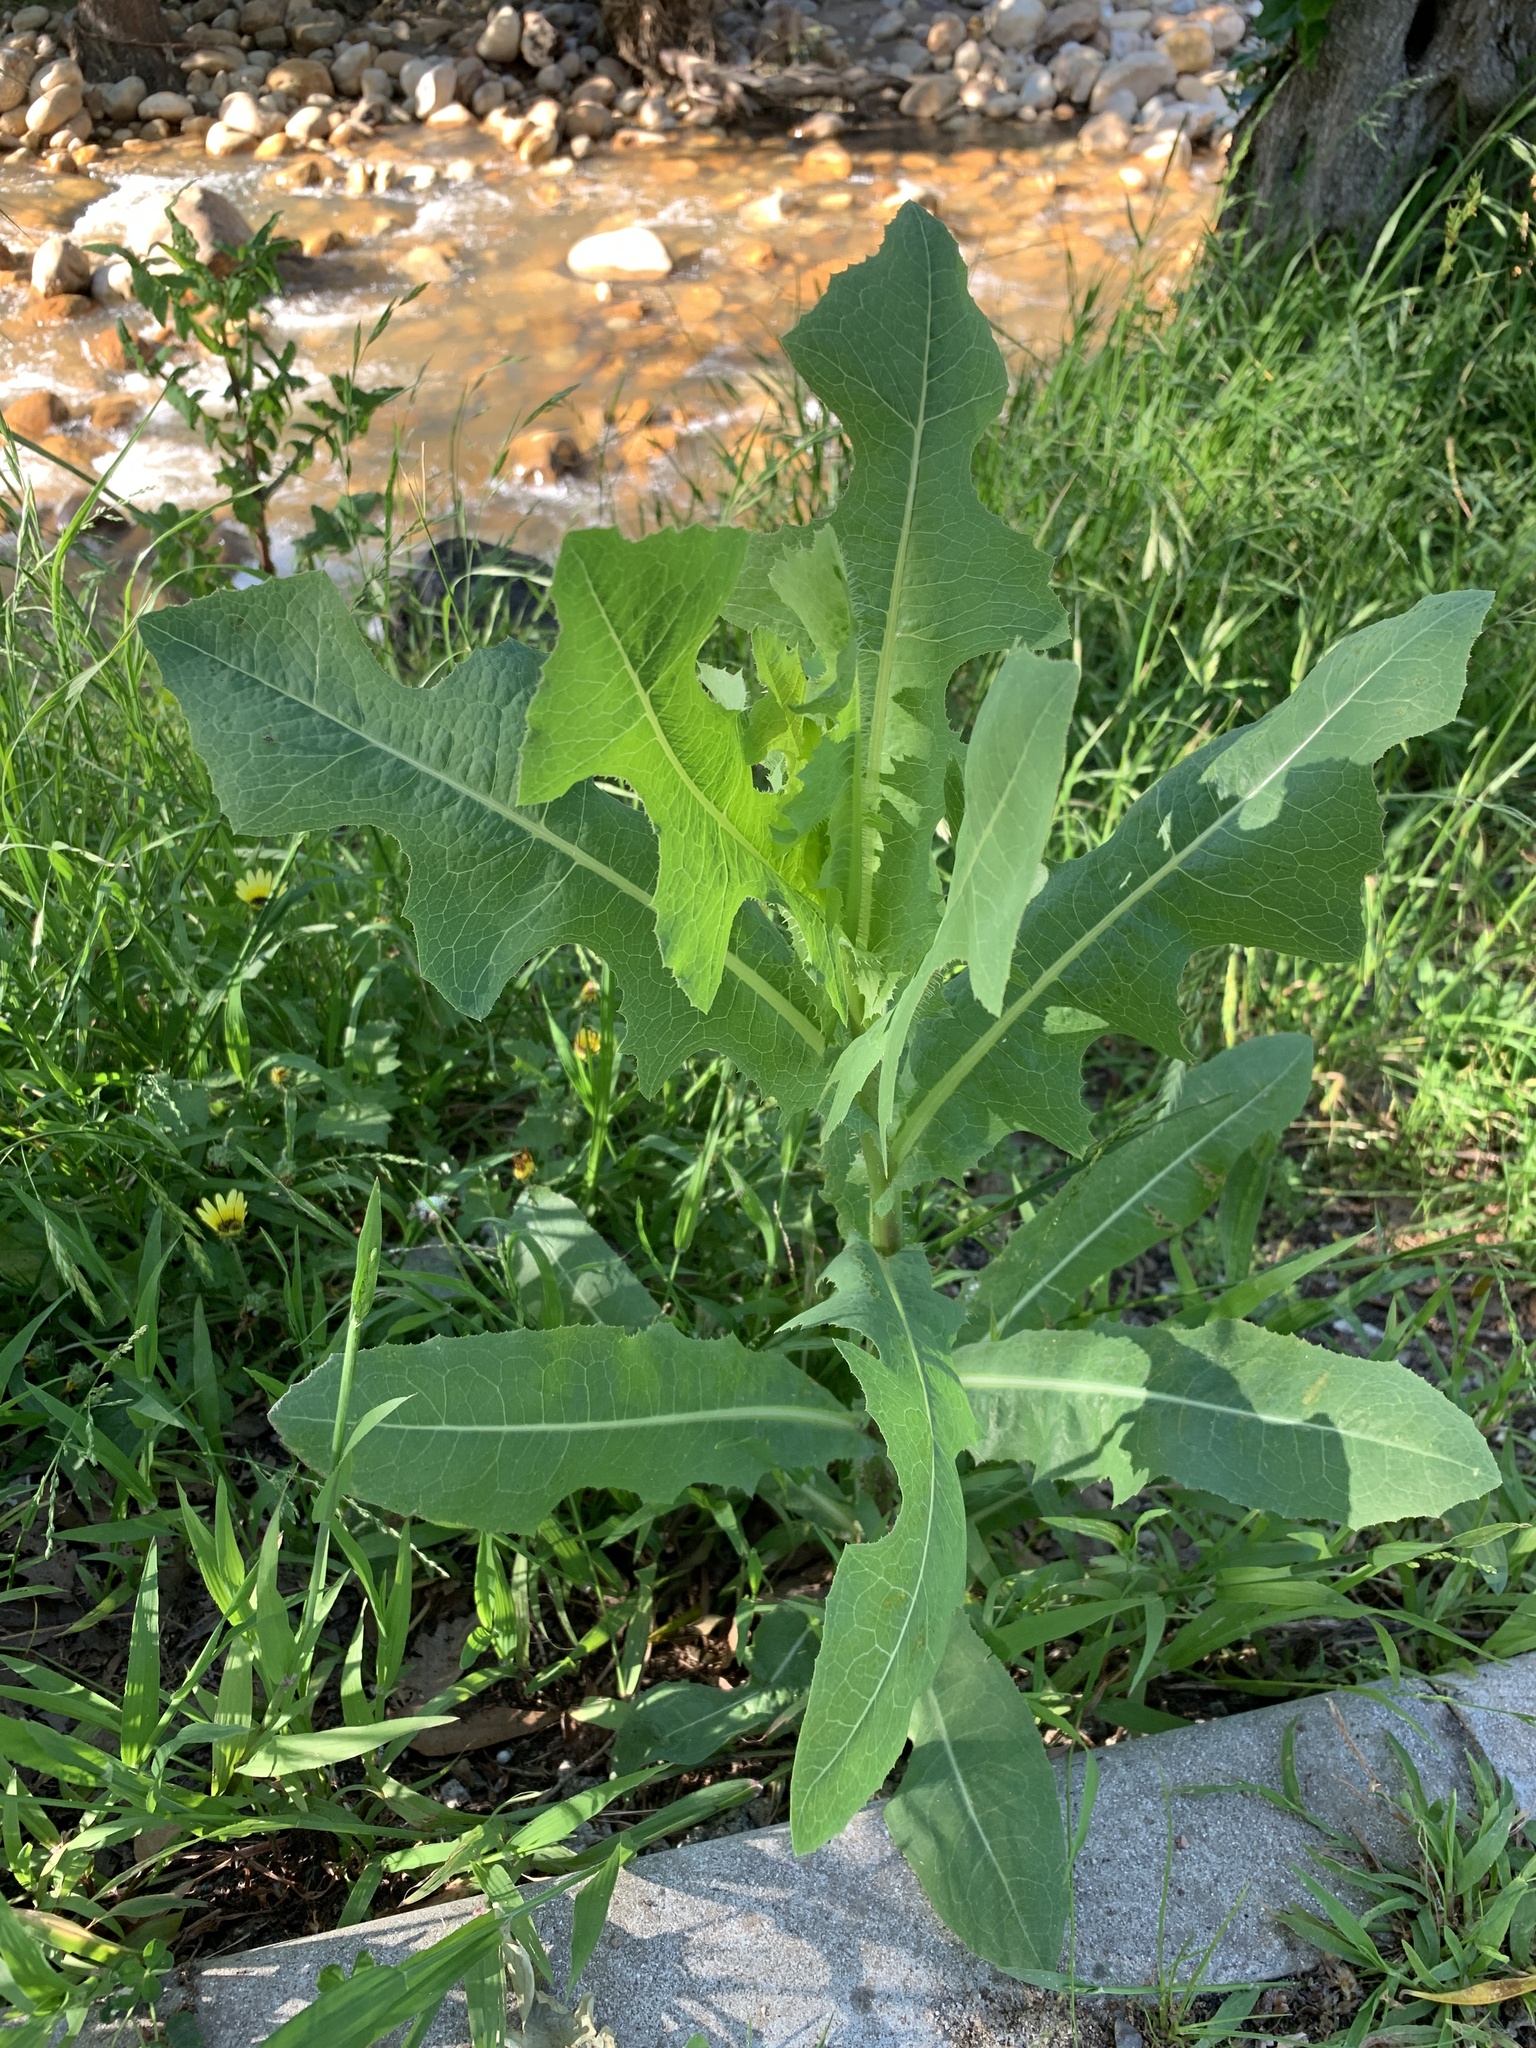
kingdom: Plantae
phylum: Tracheophyta
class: Magnoliopsida
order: Asterales
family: Asteraceae
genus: Lactuca
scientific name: Lactuca serriola
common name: Prickly lettuce
